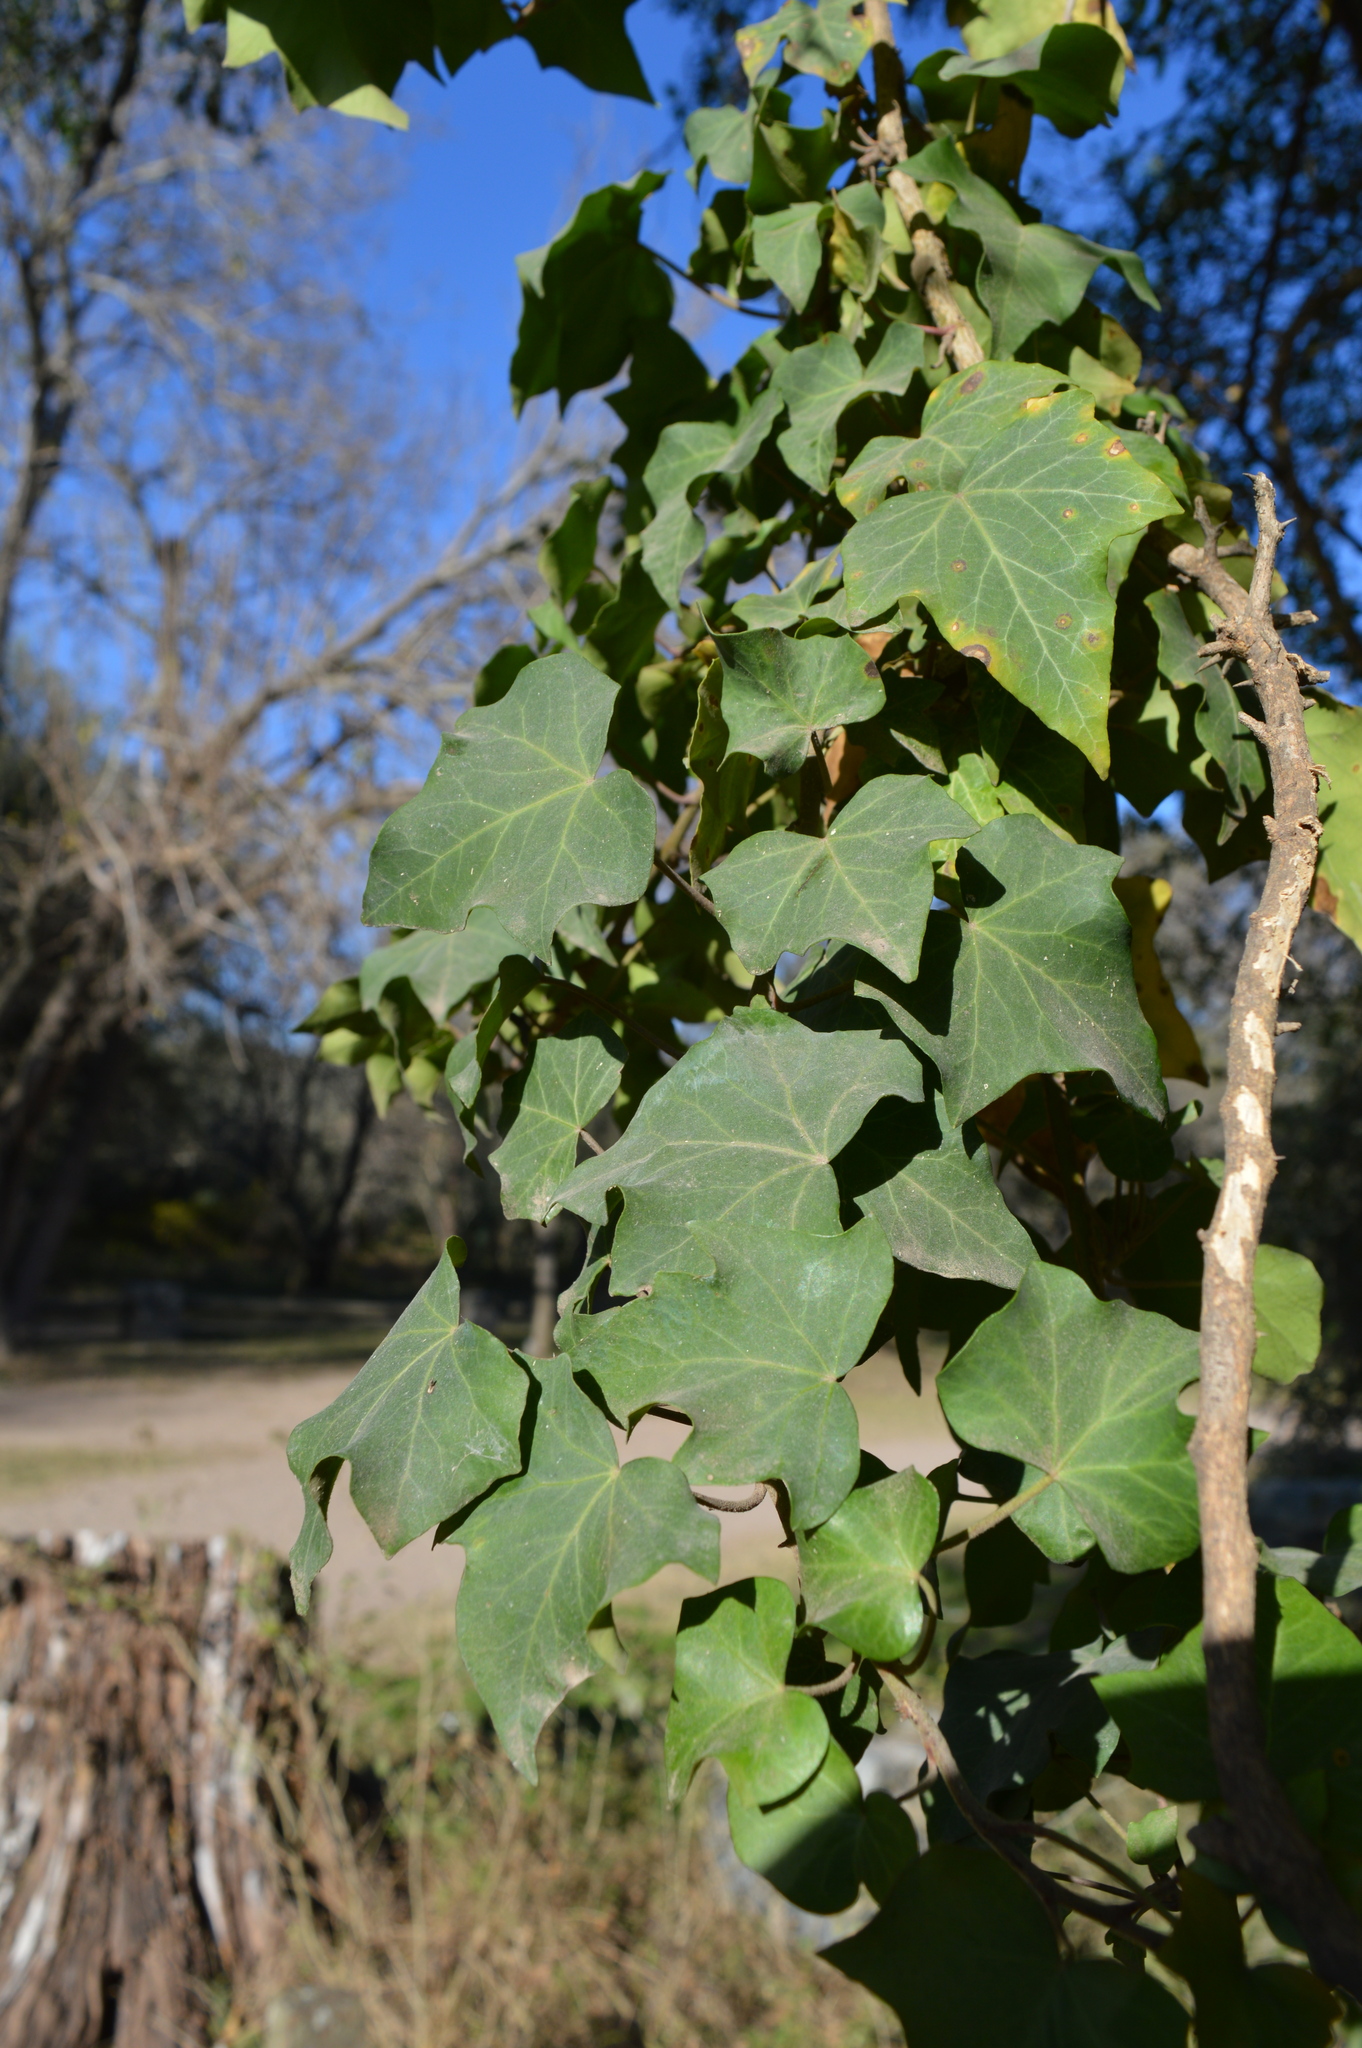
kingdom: Plantae
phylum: Tracheophyta
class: Magnoliopsida
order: Apiales
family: Araliaceae
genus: Hedera
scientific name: Hedera helix
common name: Ivy
